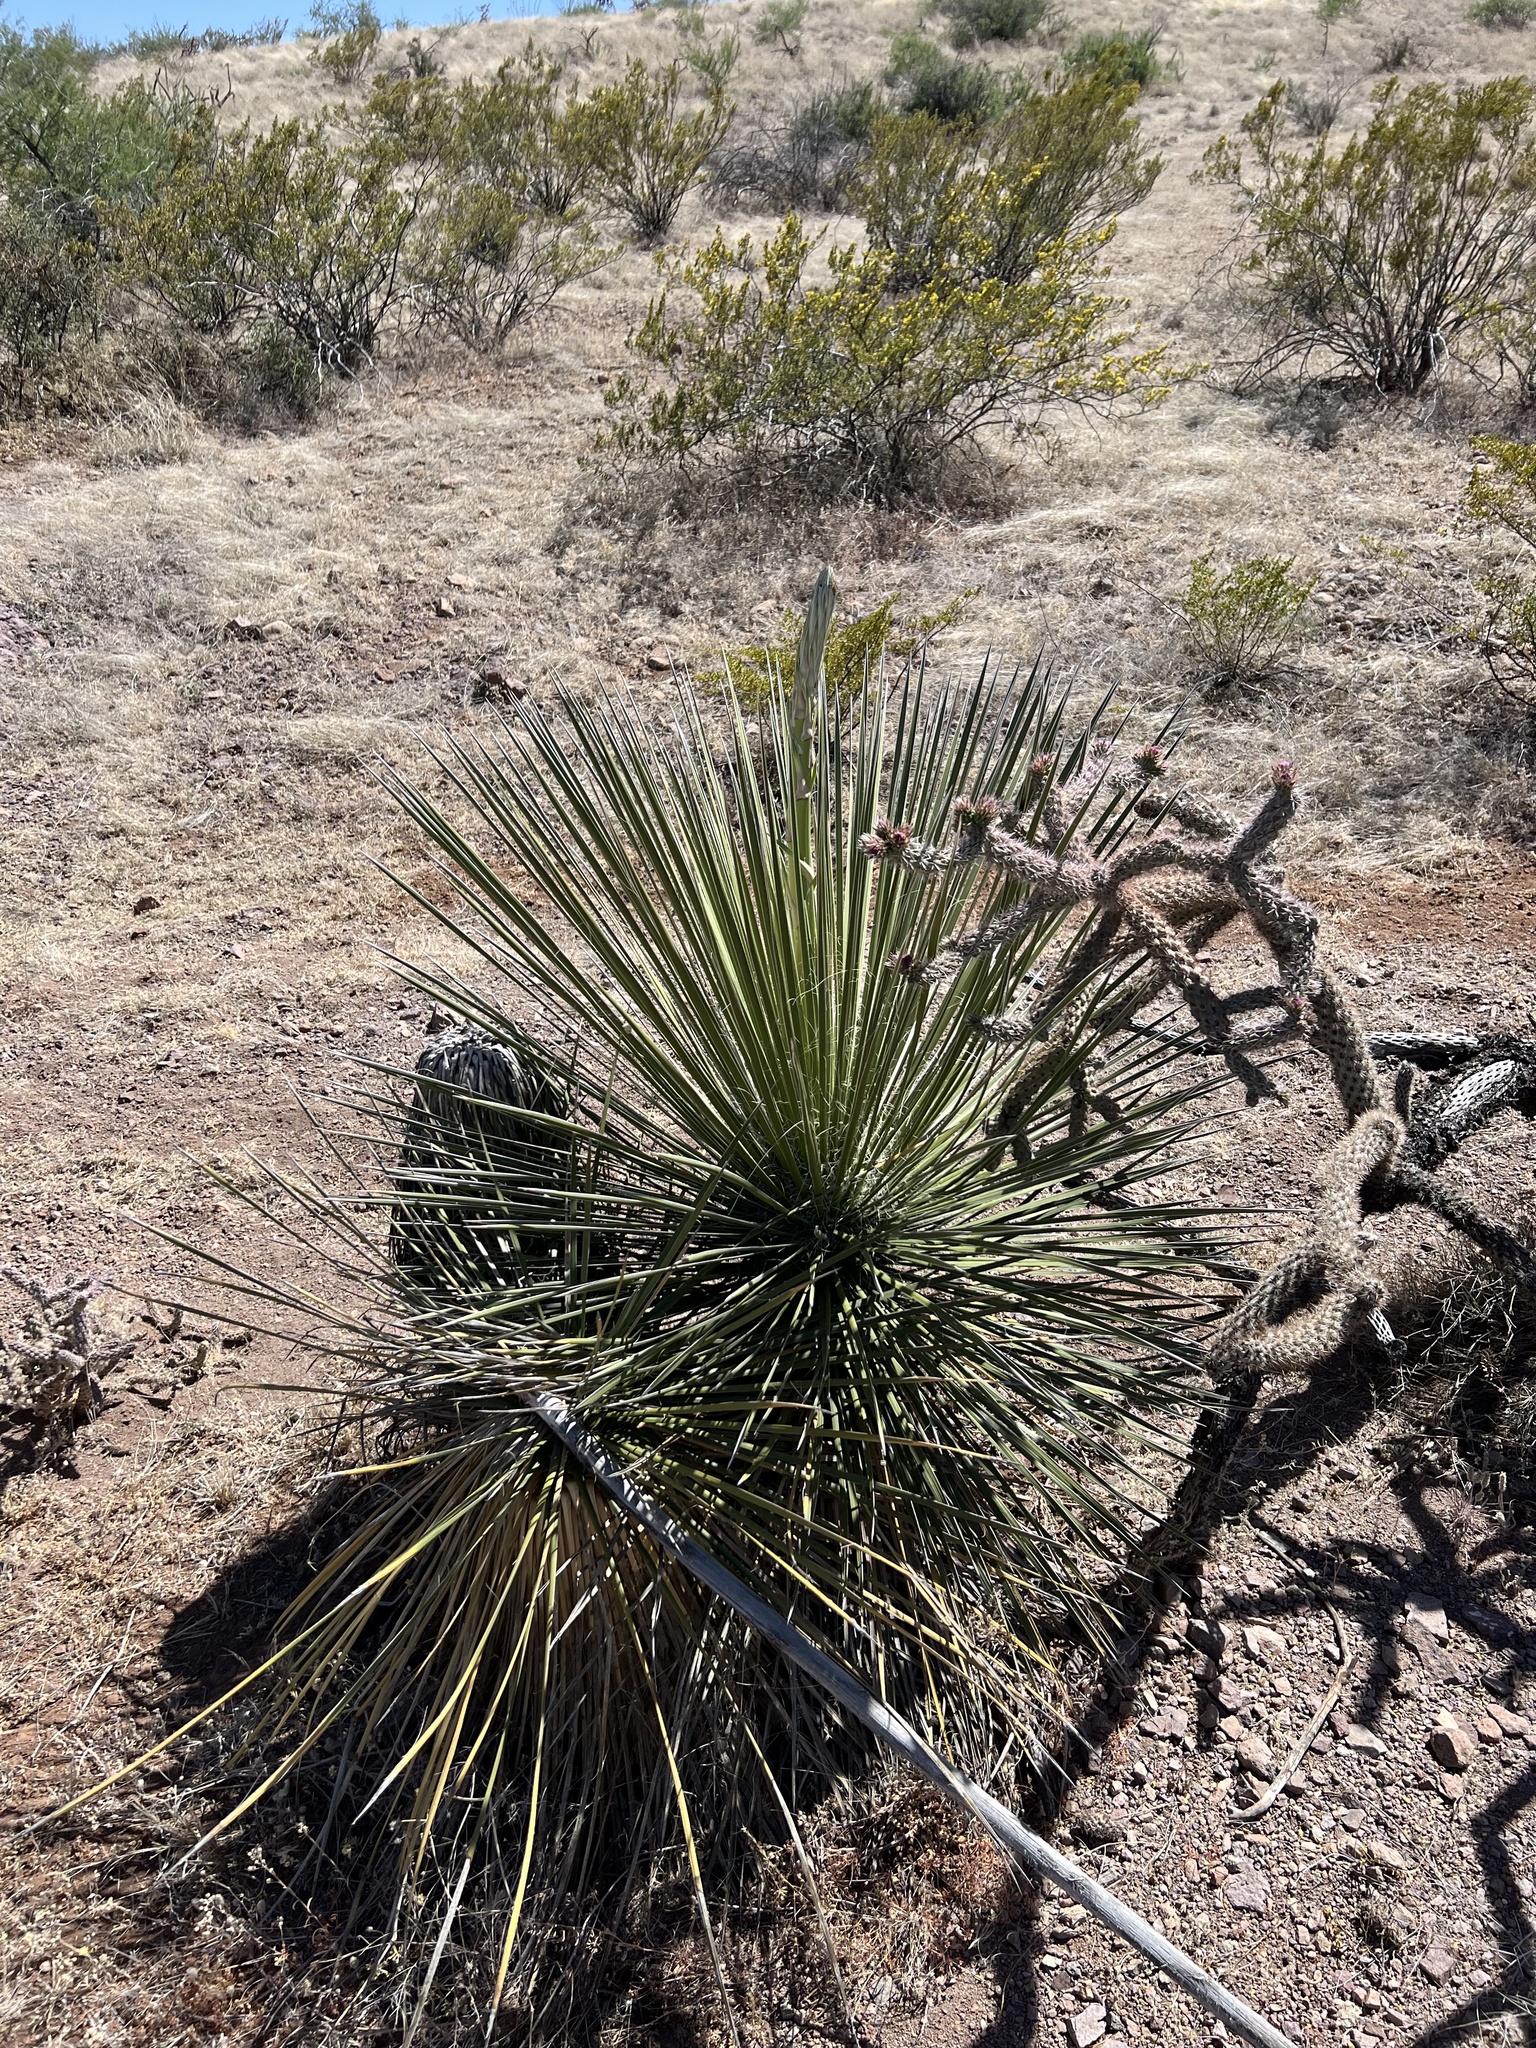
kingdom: Plantae
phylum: Tracheophyta
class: Liliopsida
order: Asparagales
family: Asparagaceae
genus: Yucca
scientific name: Yucca elata
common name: Palmella
